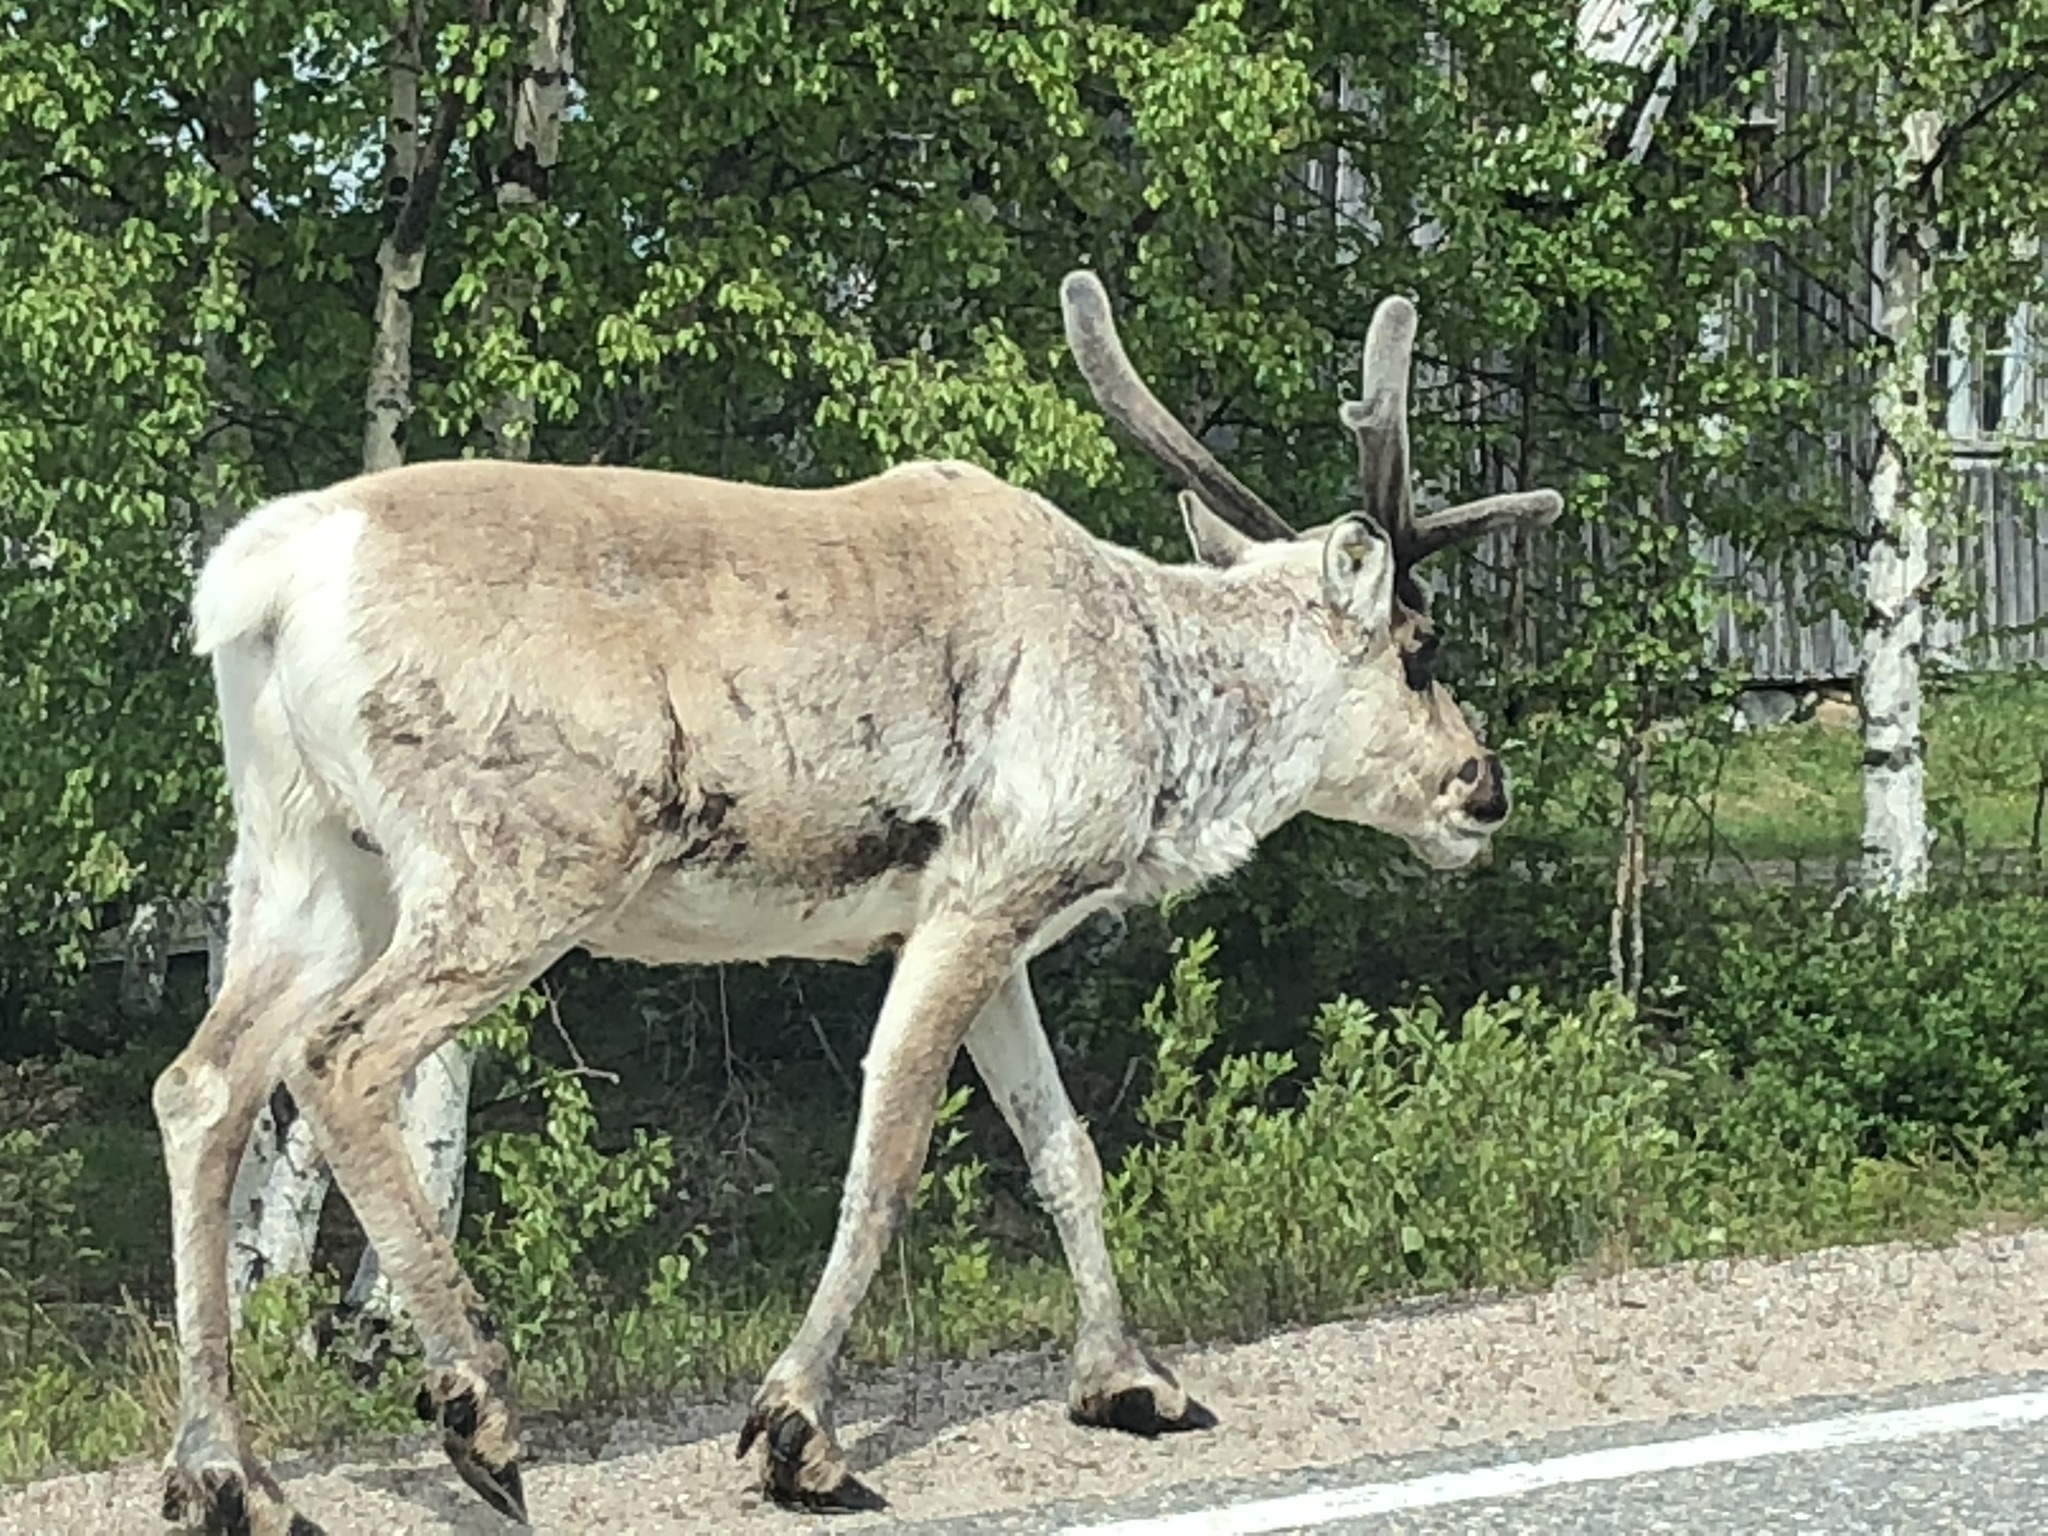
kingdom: Animalia
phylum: Chordata
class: Mammalia
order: Artiodactyla
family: Cervidae
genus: Rangifer
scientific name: Rangifer tarandus
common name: Reindeer
